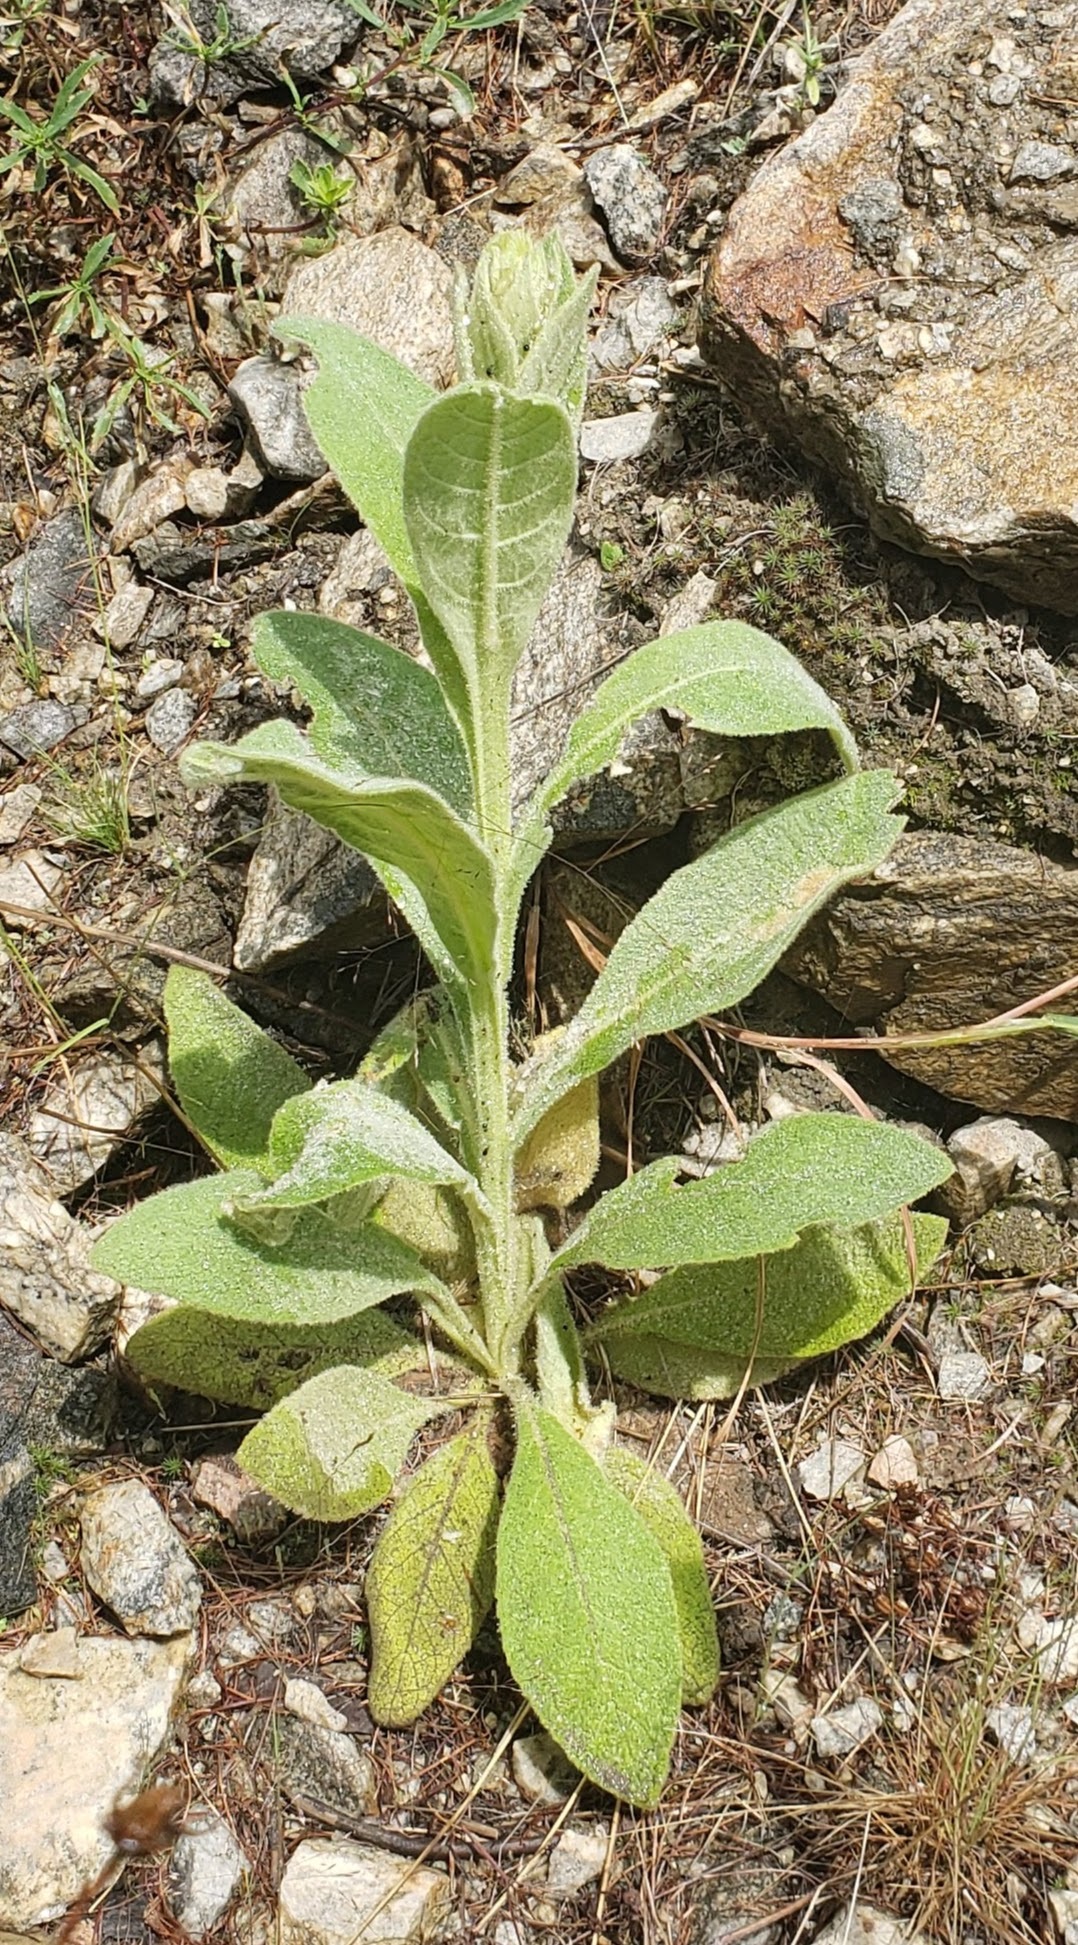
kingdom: Plantae
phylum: Tracheophyta
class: Magnoliopsida
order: Lamiales
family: Scrophulariaceae
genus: Verbascum
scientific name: Verbascum thapsus
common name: Common mullein
